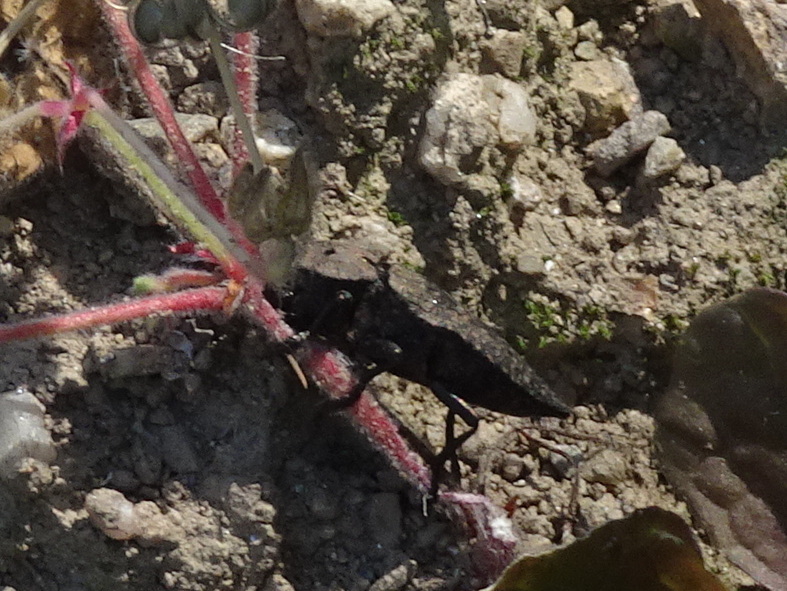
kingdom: Animalia
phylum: Arthropoda
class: Insecta
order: Coleoptera
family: Buprestidae
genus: Capnodis
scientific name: Capnodis tenebricosa
